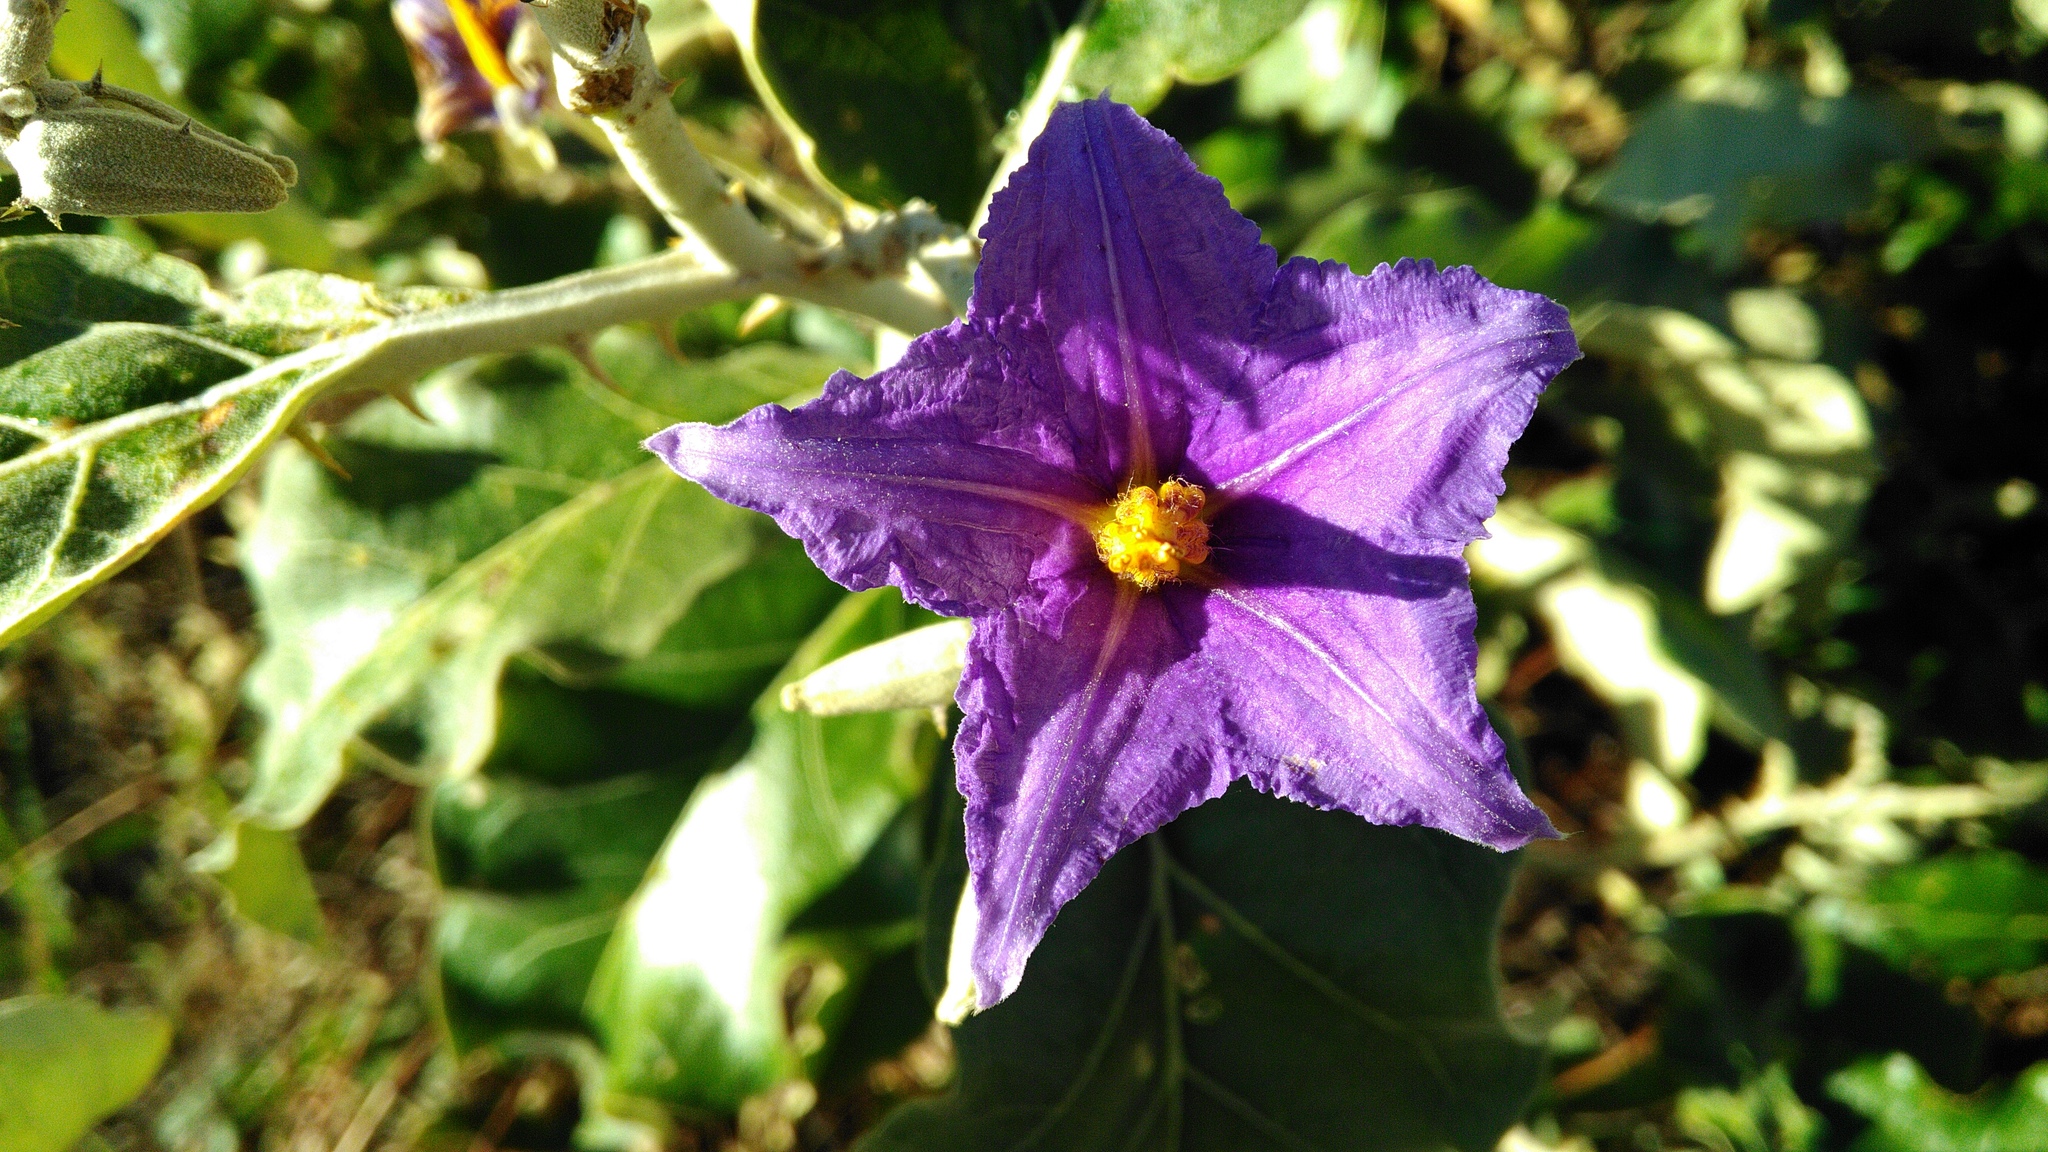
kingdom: Plantae
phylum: Tracheophyta
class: Magnoliopsida
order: Solanales
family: Solanaceae
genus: Solanum
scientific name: Solanum lycocarpum
